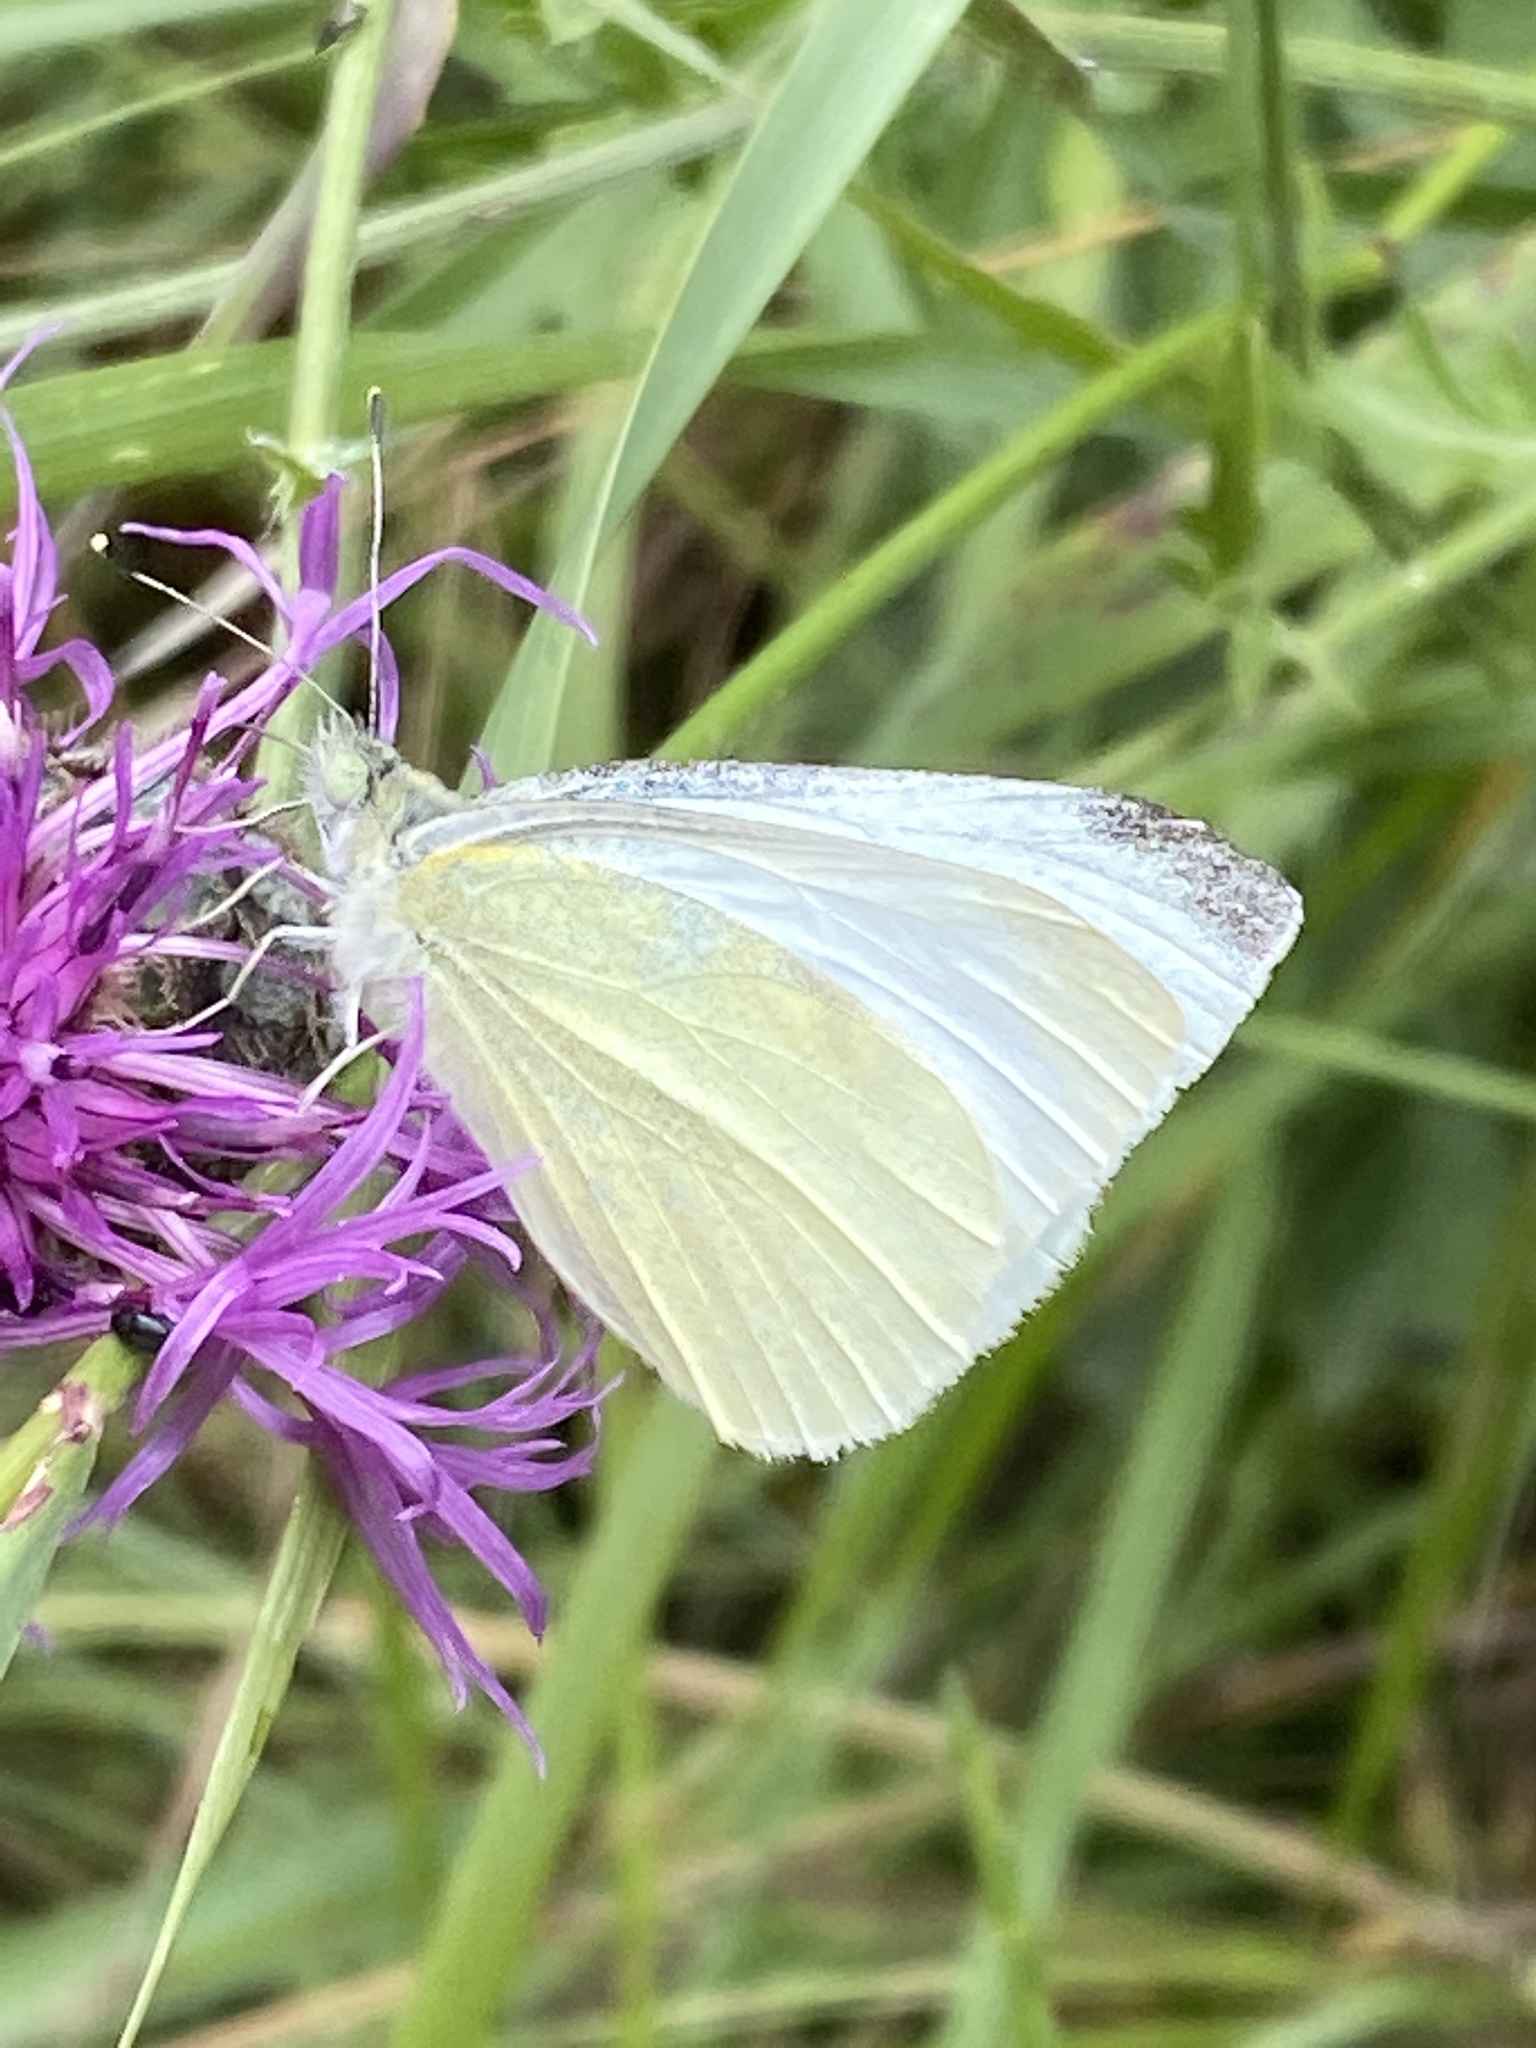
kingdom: Animalia
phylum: Arthropoda
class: Insecta
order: Lepidoptera
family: Pieridae
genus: Pieris
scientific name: Pieris rapae
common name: Small white
